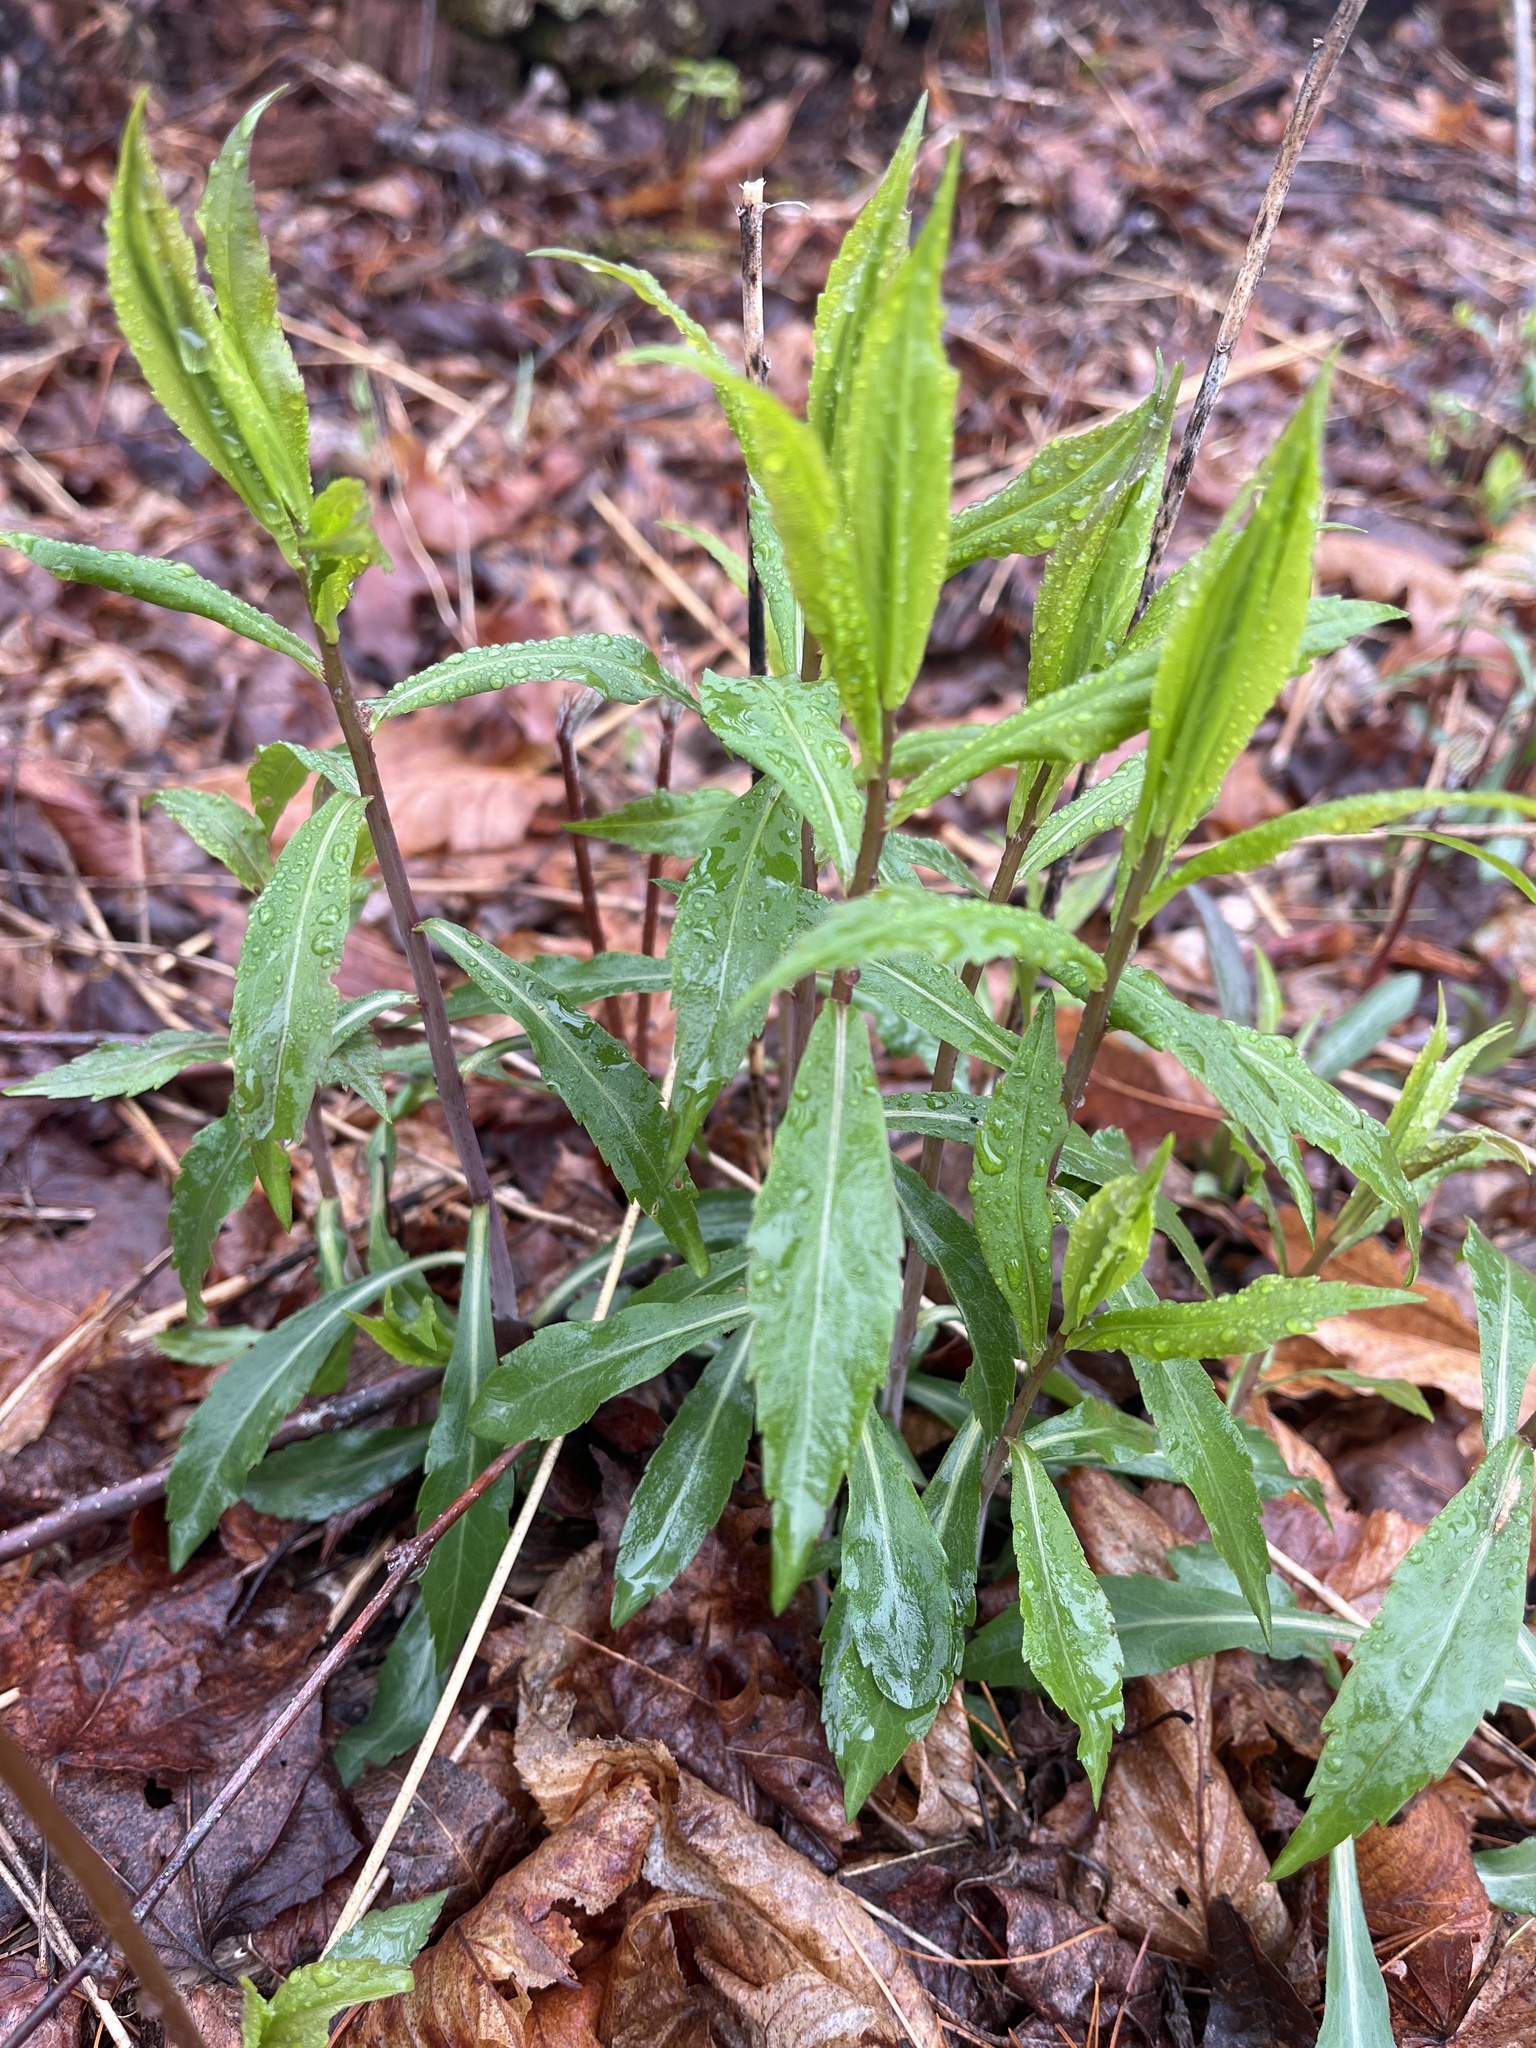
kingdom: Plantae
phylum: Tracheophyta
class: Magnoliopsida
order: Asterales
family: Asteraceae
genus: Solidago
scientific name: Solidago caesia
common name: Woodland goldenrod
